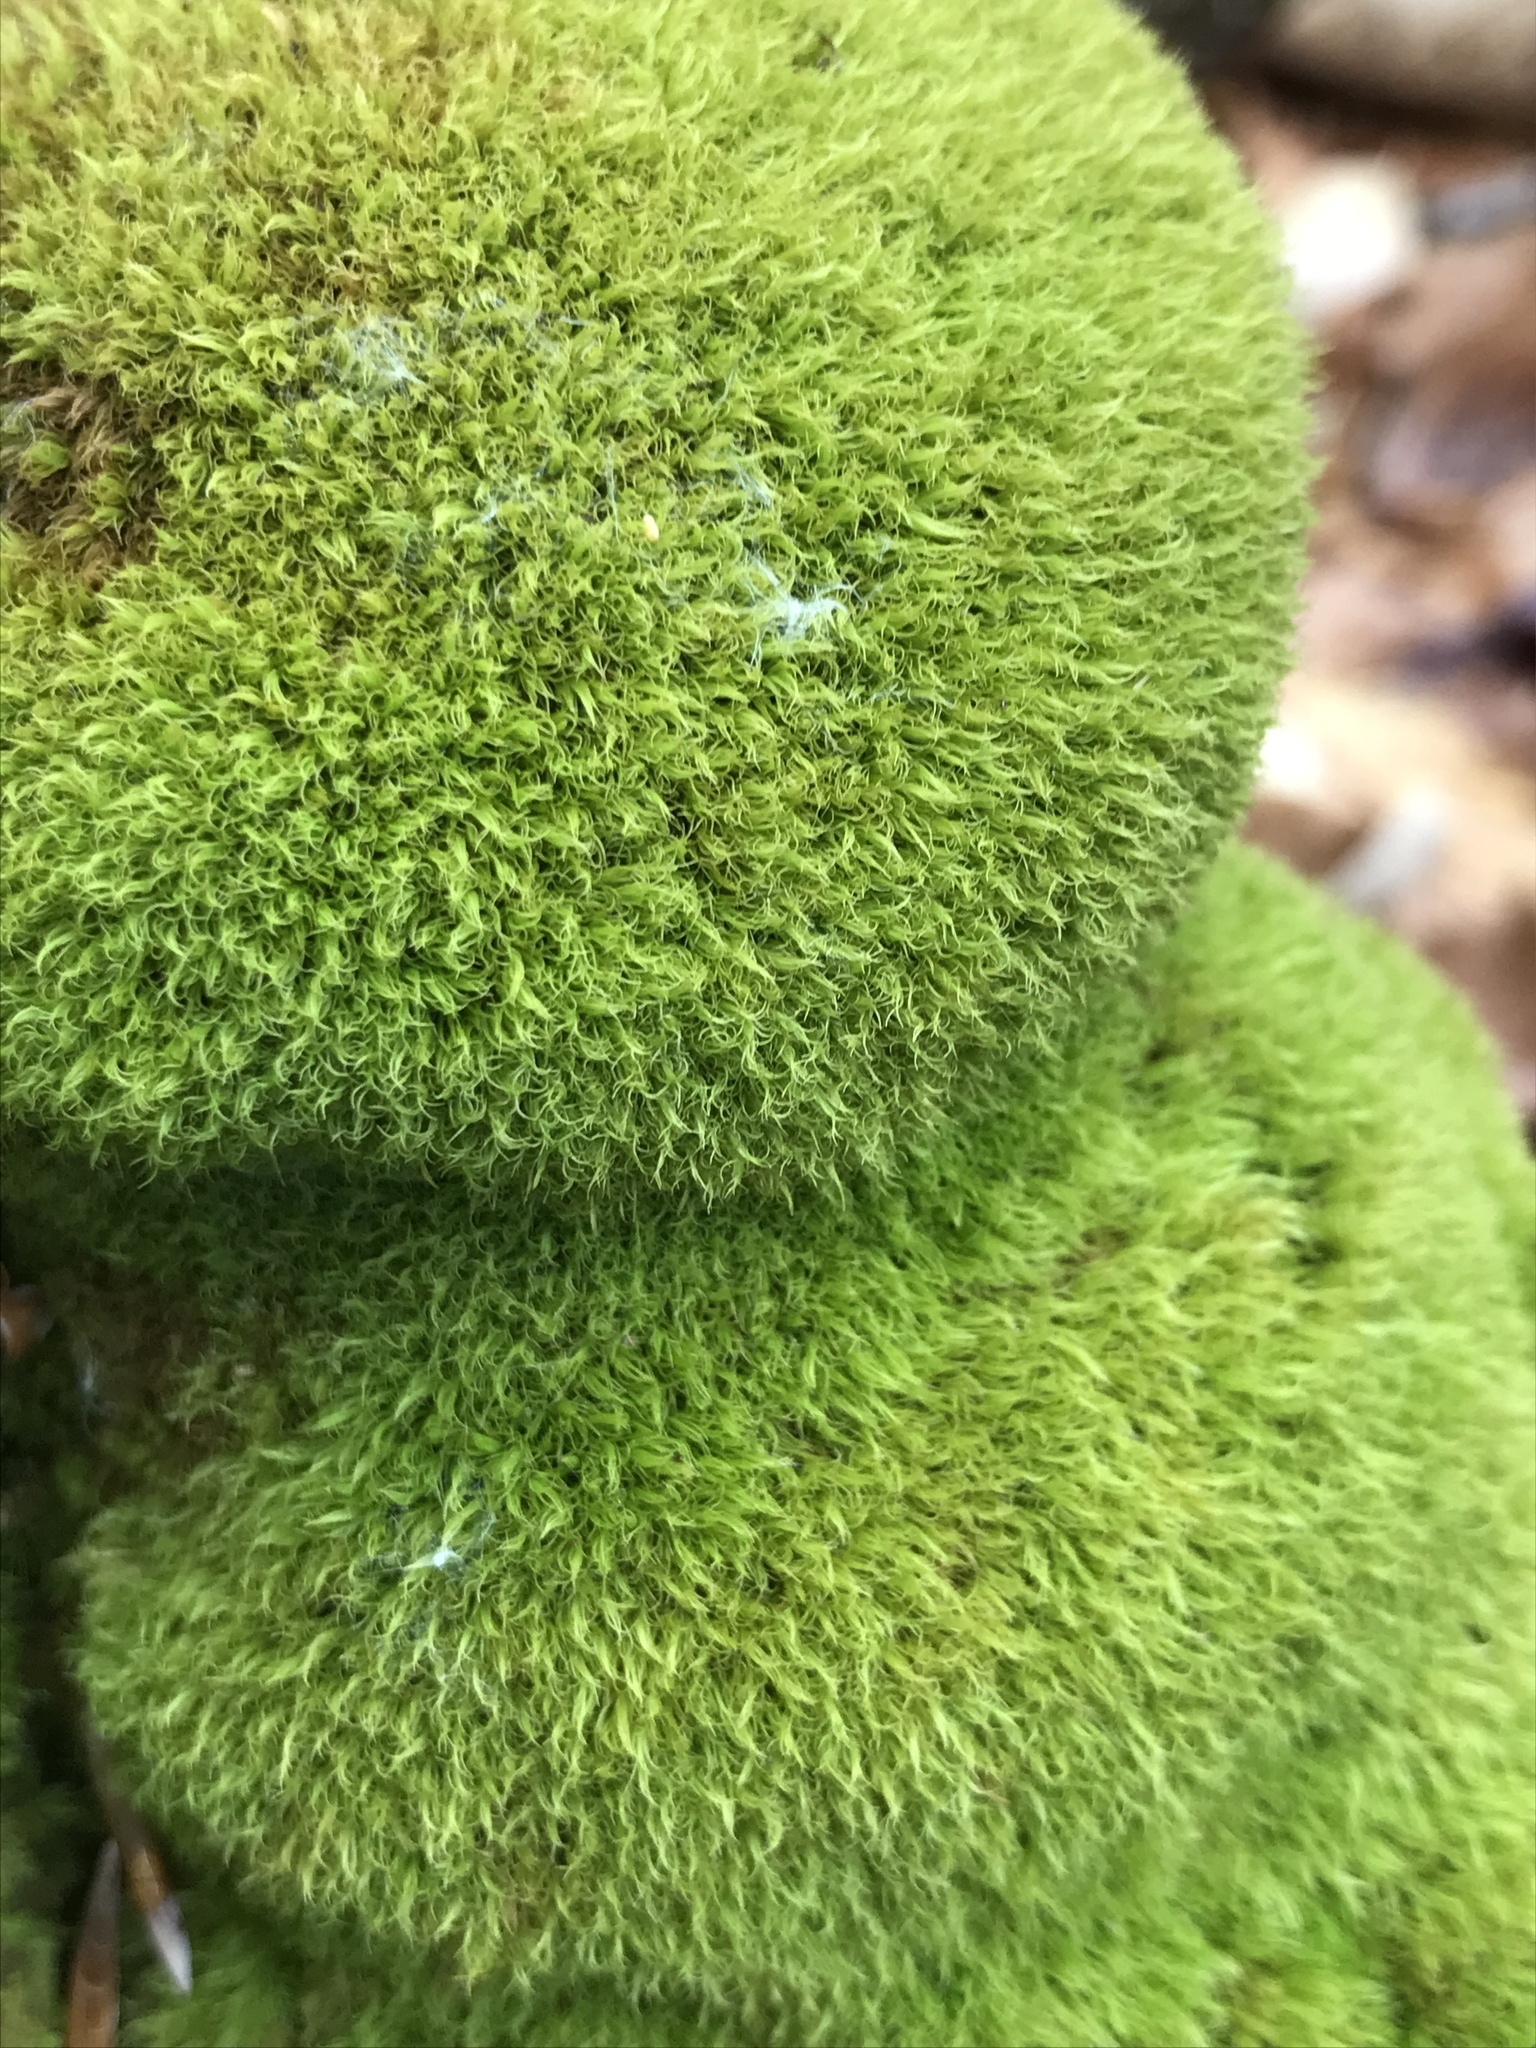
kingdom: Plantae
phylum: Bryophyta
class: Bryopsida
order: Dicranales
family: Dicranaceae
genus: Orthodicranum
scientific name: Orthodicranum montanum
